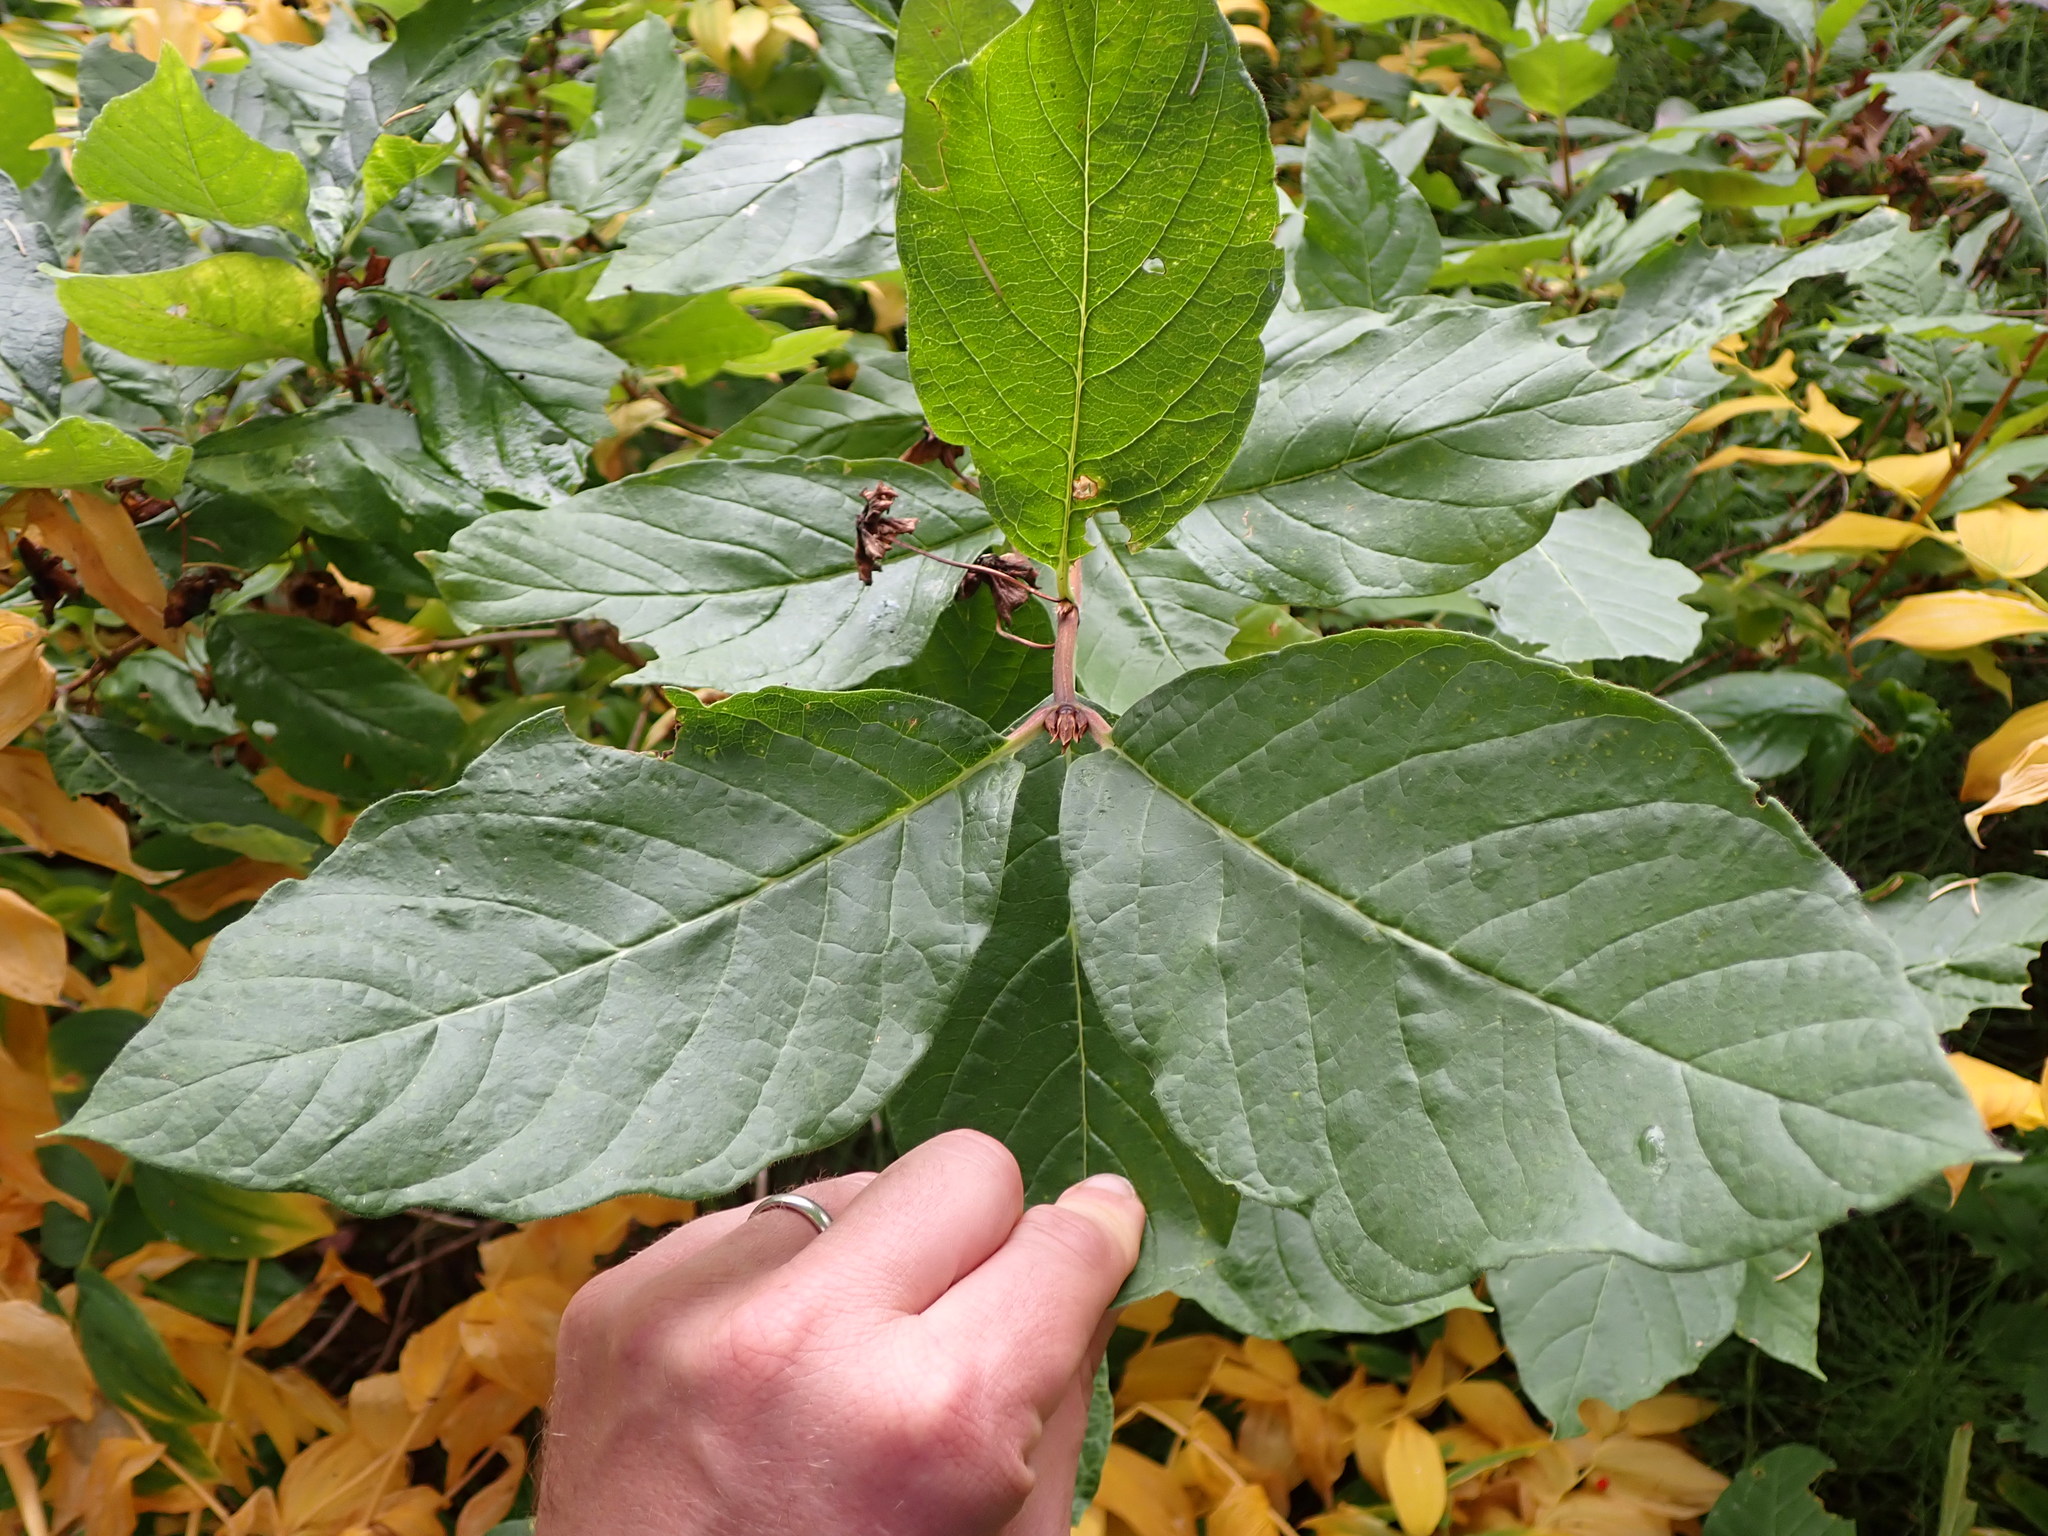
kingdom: Plantae
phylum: Tracheophyta
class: Magnoliopsida
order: Dipsacales
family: Caprifoliaceae
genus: Lonicera
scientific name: Lonicera involucrata
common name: Californian honeysuckle
